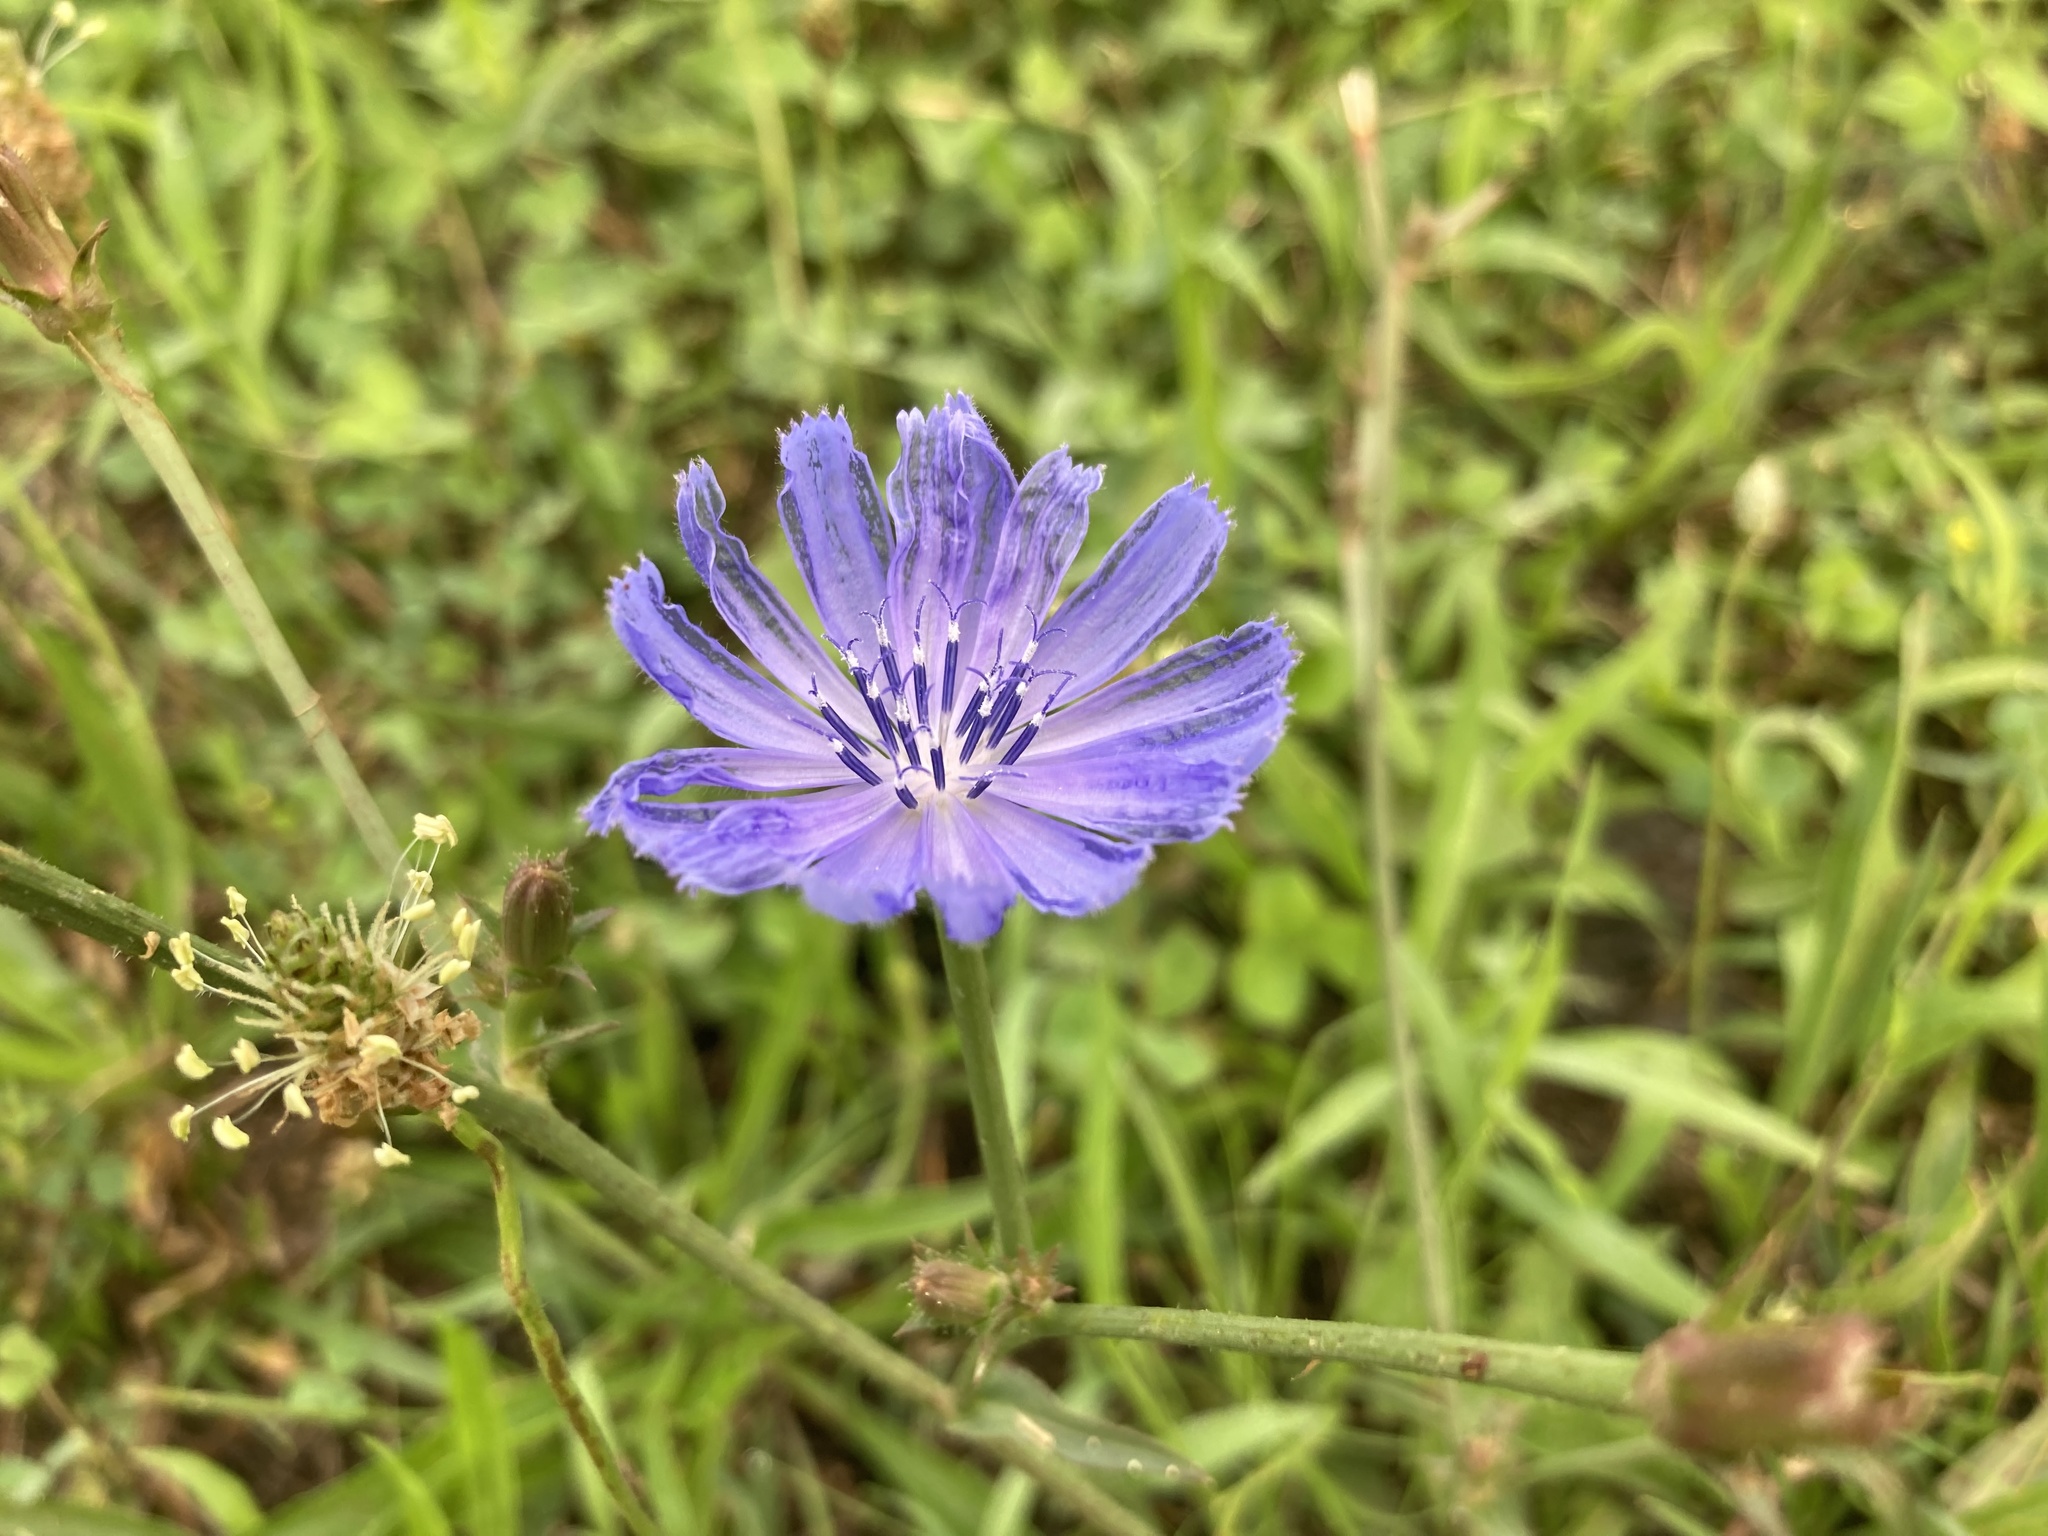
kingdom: Plantae
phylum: Tracheophyta
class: Magnoliopsida
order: Asterales
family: Asteraceae
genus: Cichorium
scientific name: Cichorium intybus
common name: Chicory
